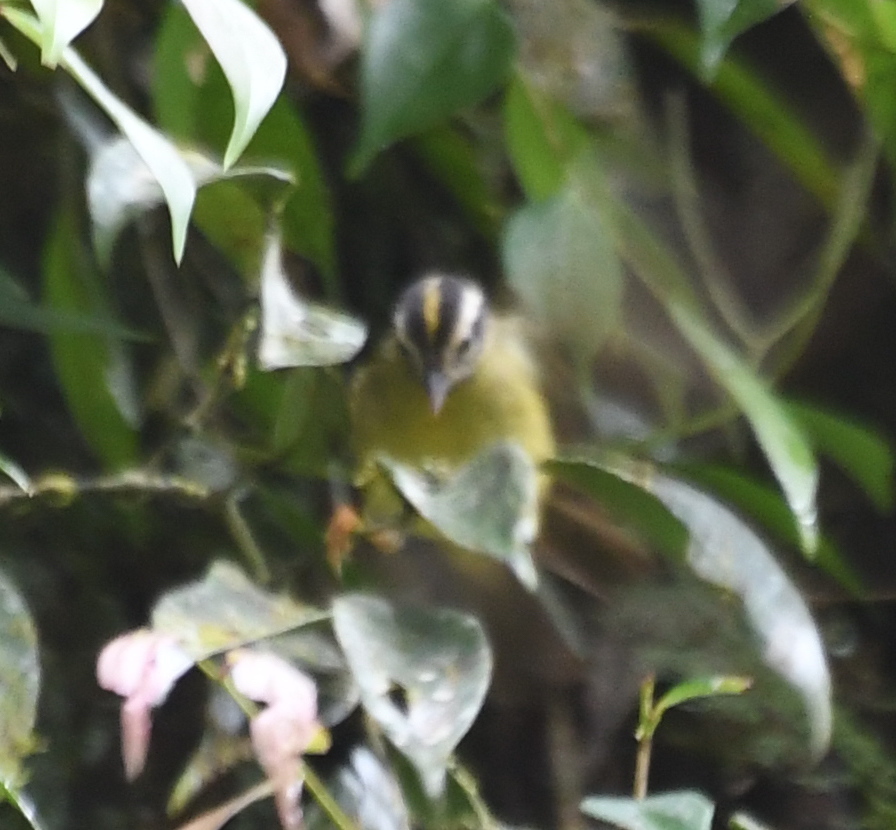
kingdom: Animalia
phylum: Chordata
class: Aves
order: Passeriformes
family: Parulidae
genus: Basileuterus
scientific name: Basileuterus tristriatus
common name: Three-striped warbler
